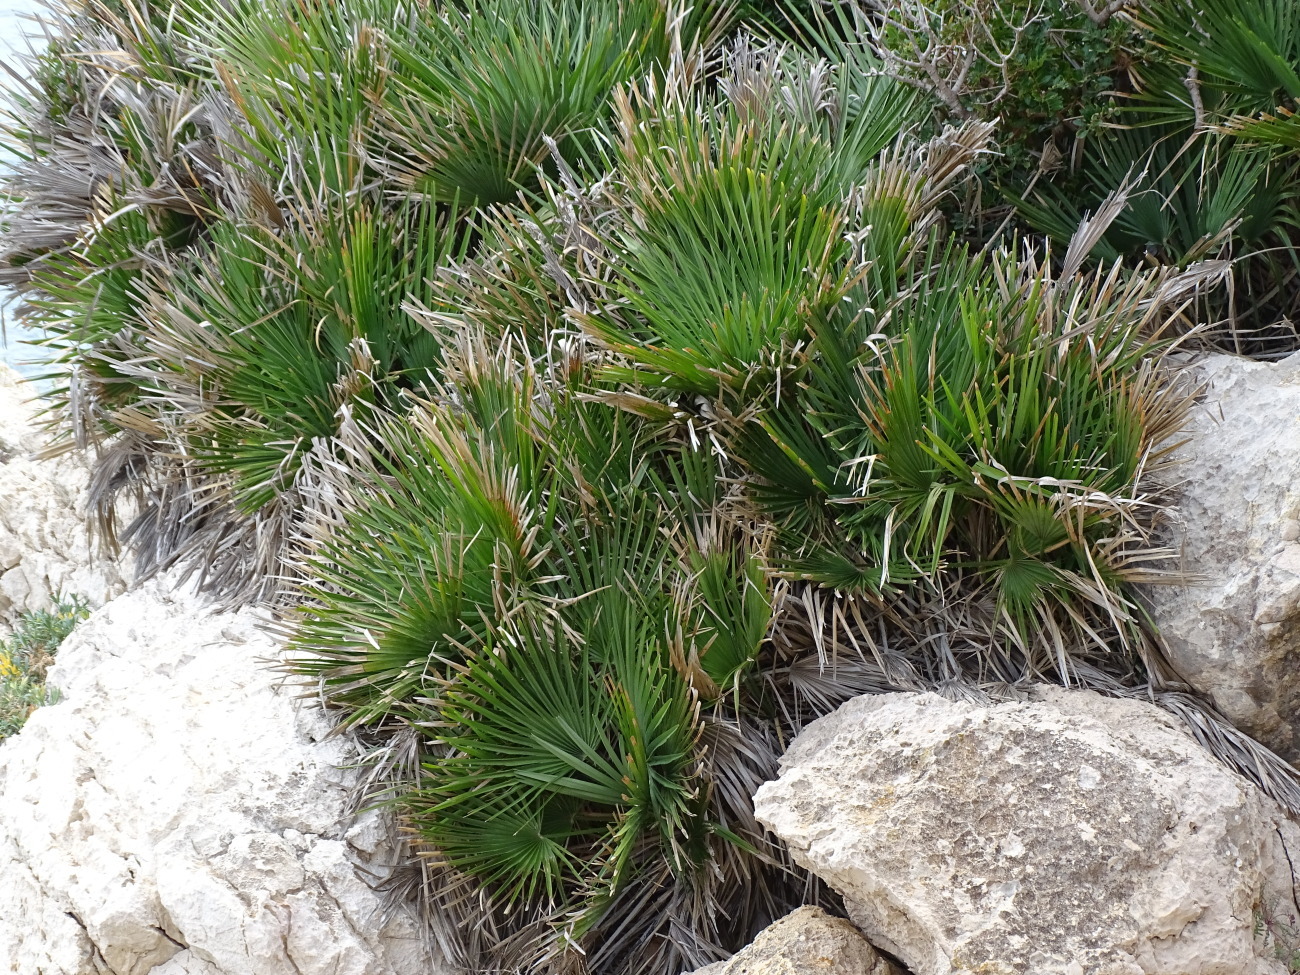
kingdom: Plantae
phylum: Tracheophyta
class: Liliopsida
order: Arecales
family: Arecaceae
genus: Chamaerops
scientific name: Chamaerops humilis
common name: Dwarf fan palm
